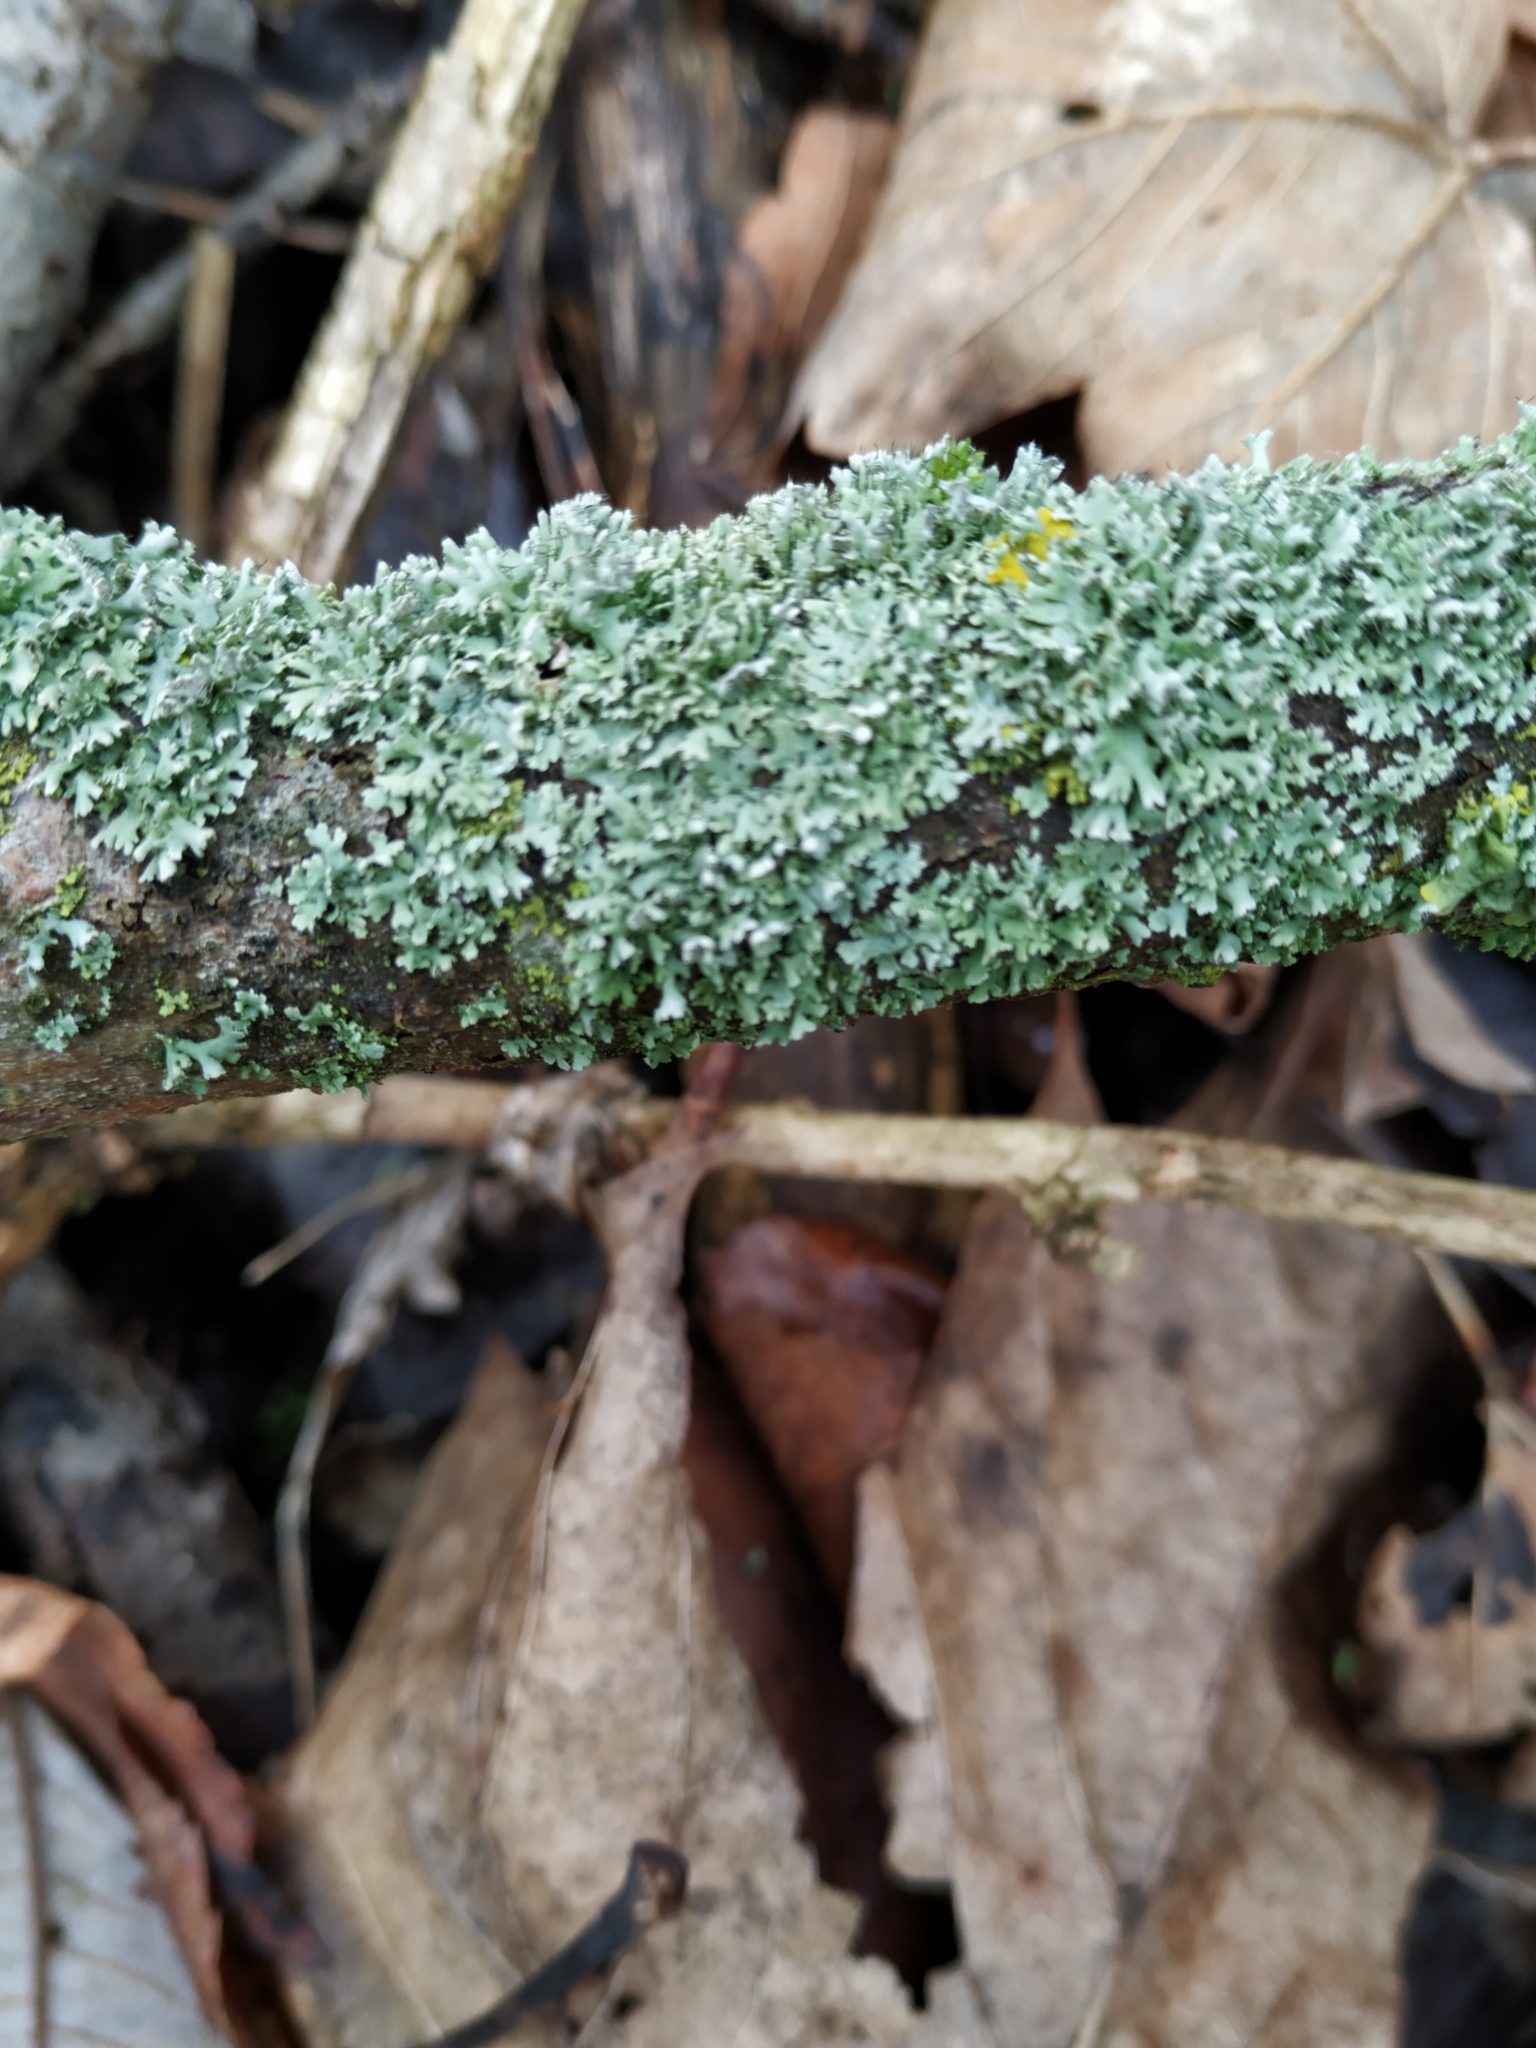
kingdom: Fungi
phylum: Ascomycota
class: Lecanoromycetes
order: Caliciales
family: Physciaceae
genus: Physcia
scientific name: Physcia adscendens
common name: Hooded rosette lichen
